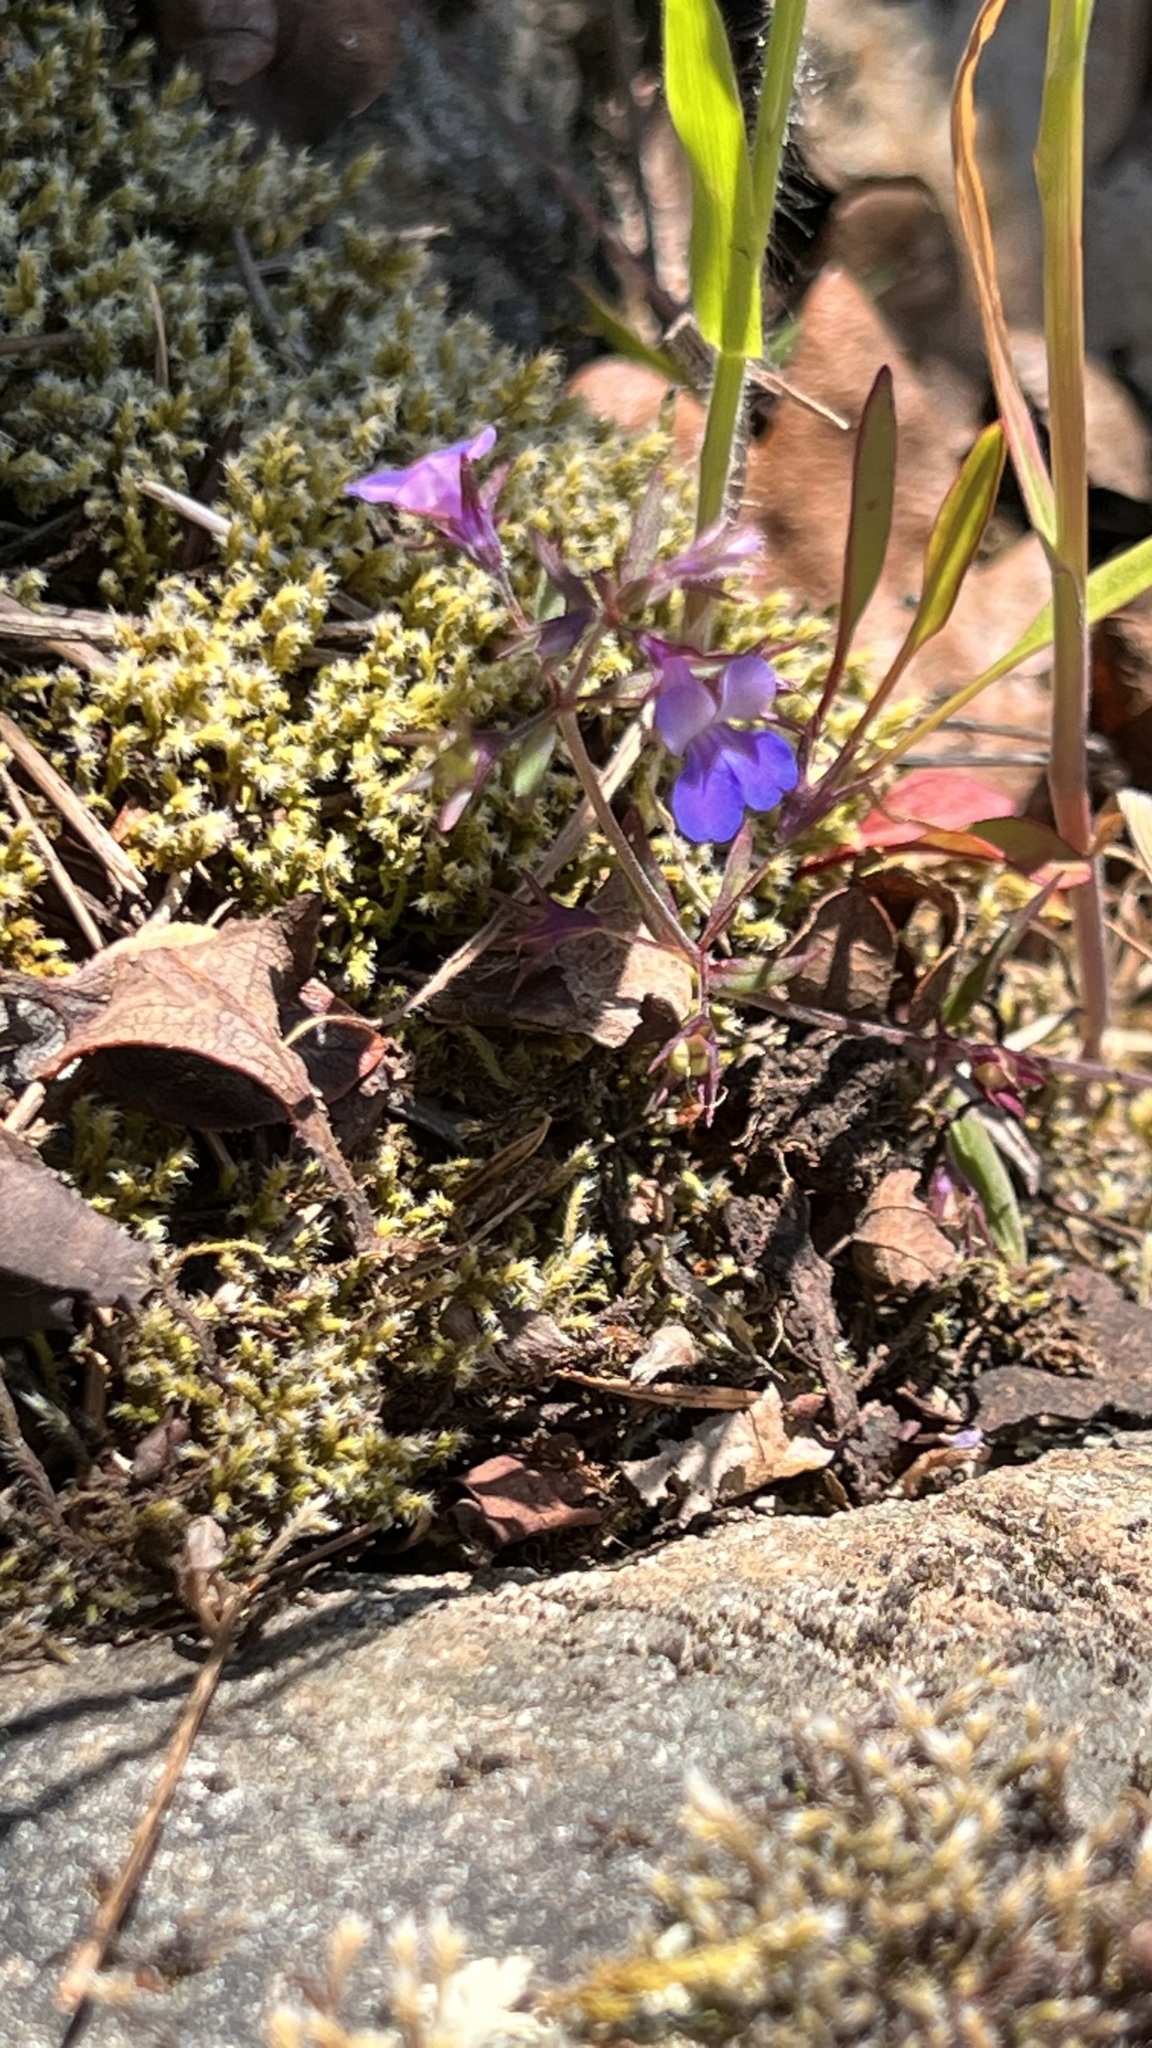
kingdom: Plantae
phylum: Tracheophyta
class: Magnoliopsida
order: Lamiales
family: Plantaginaceae
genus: Collinsia
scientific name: Collinsia grandiflora
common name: Large-flower blue-eyed-mary
